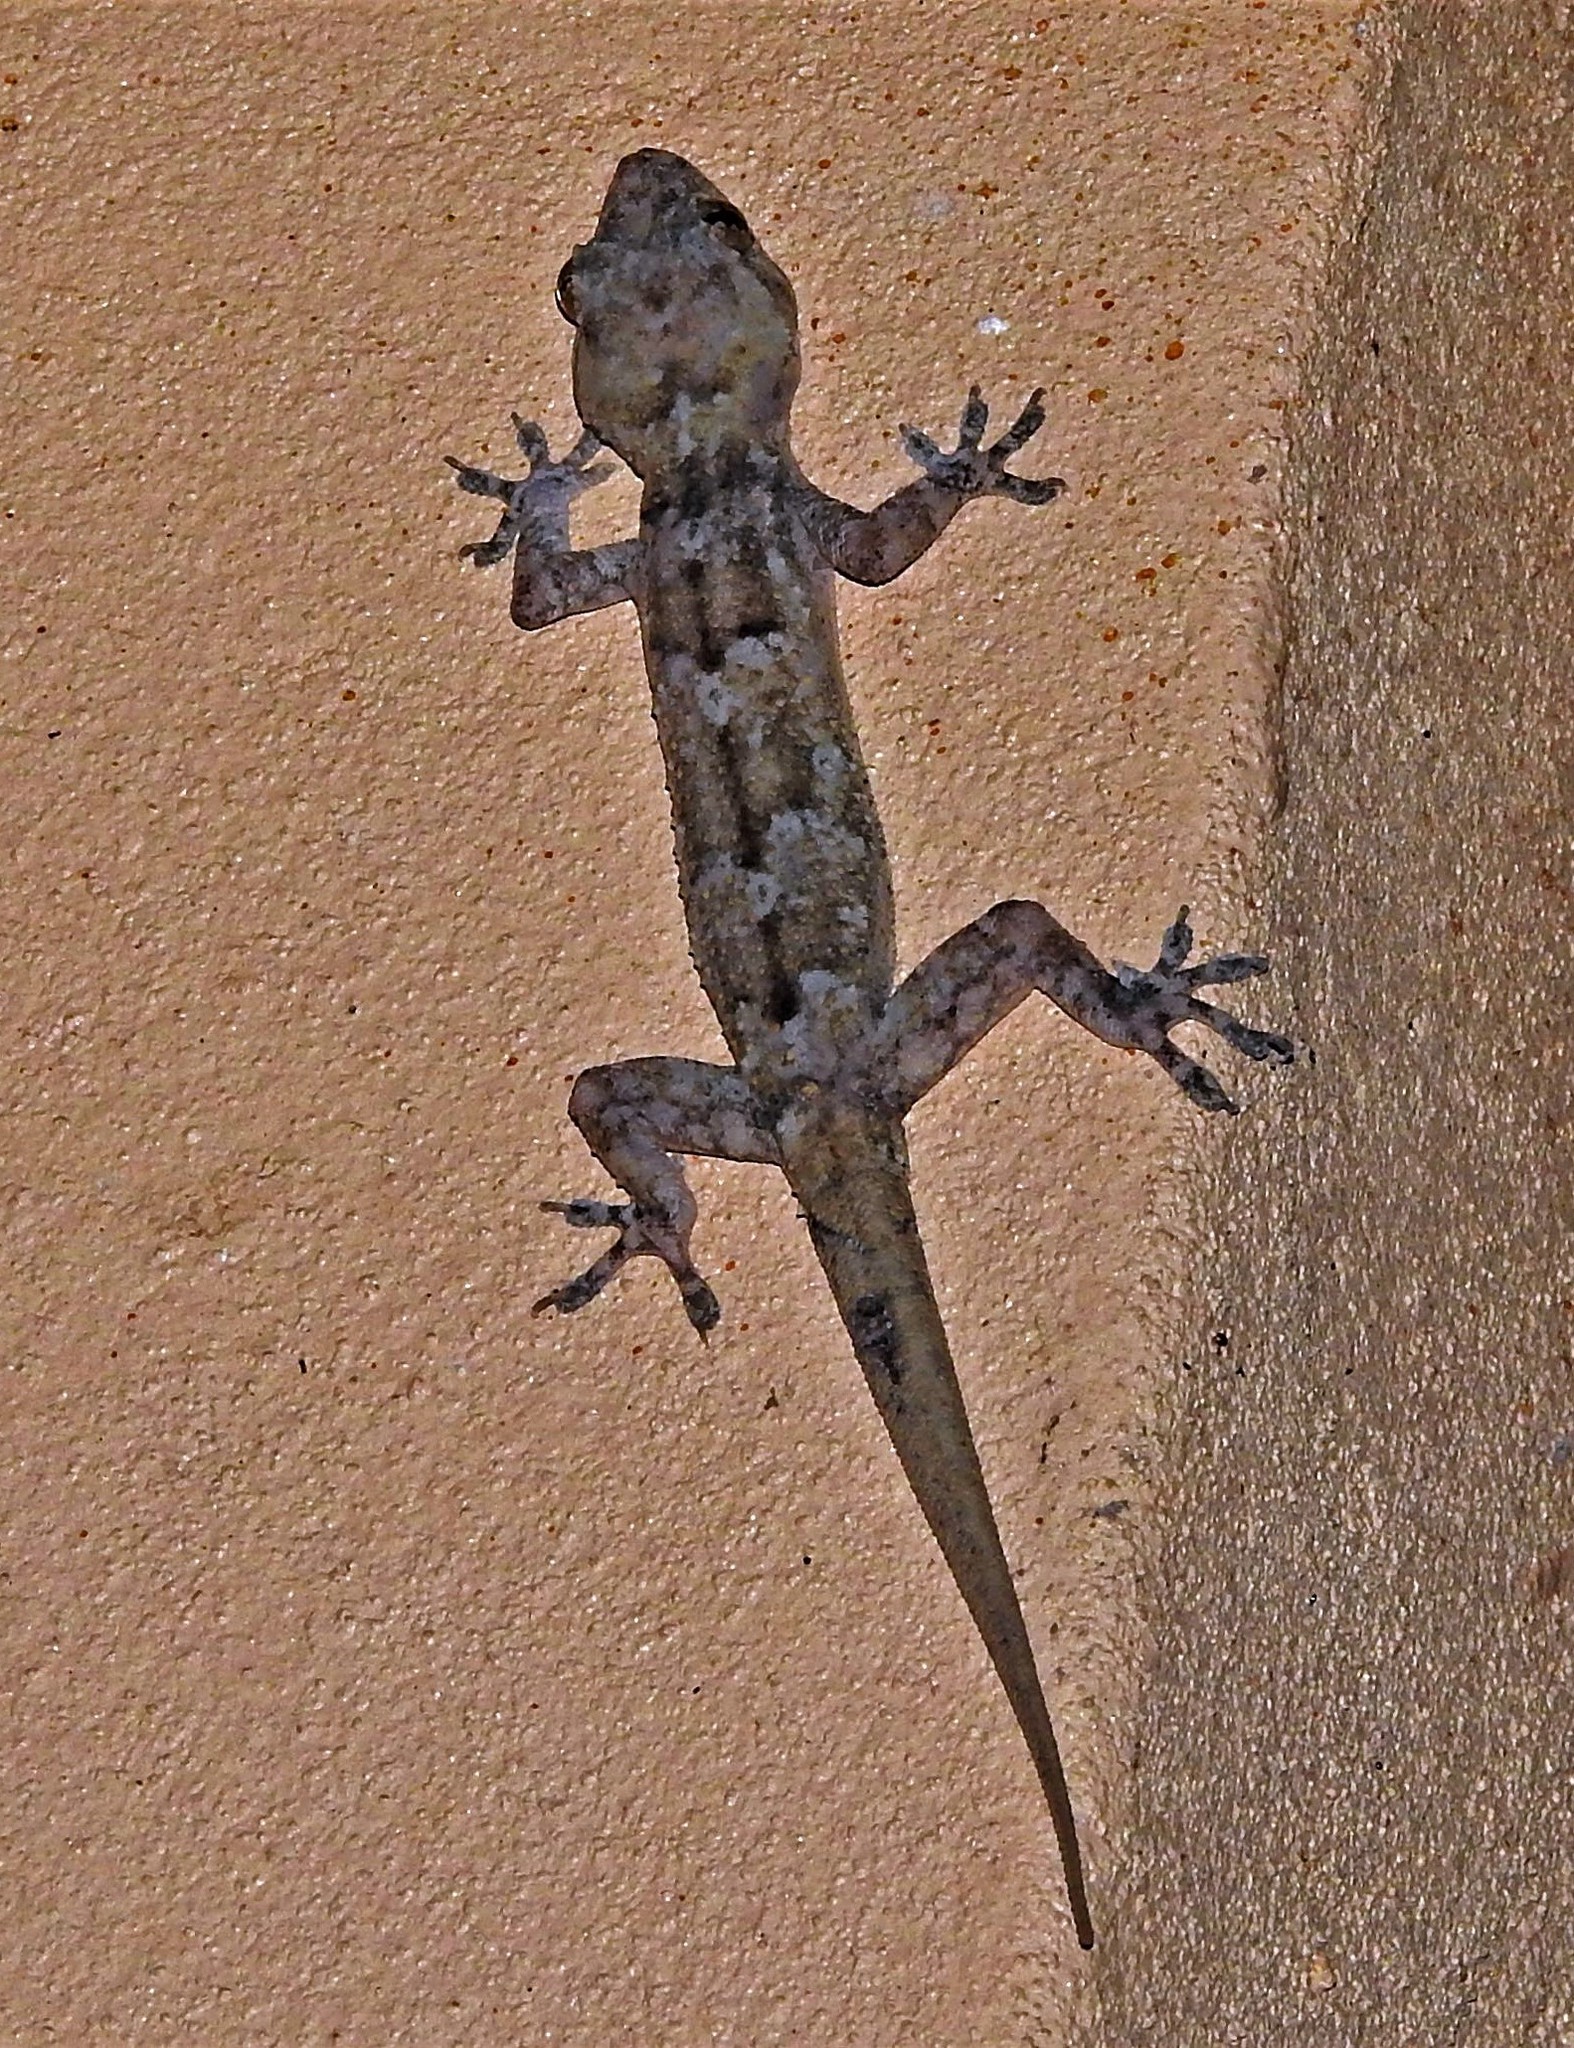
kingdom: Animalia
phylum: Chordata
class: Squamata
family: Gekkonidae
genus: Hemidactylus
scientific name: Hemidactylus mabouia
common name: House gecko
